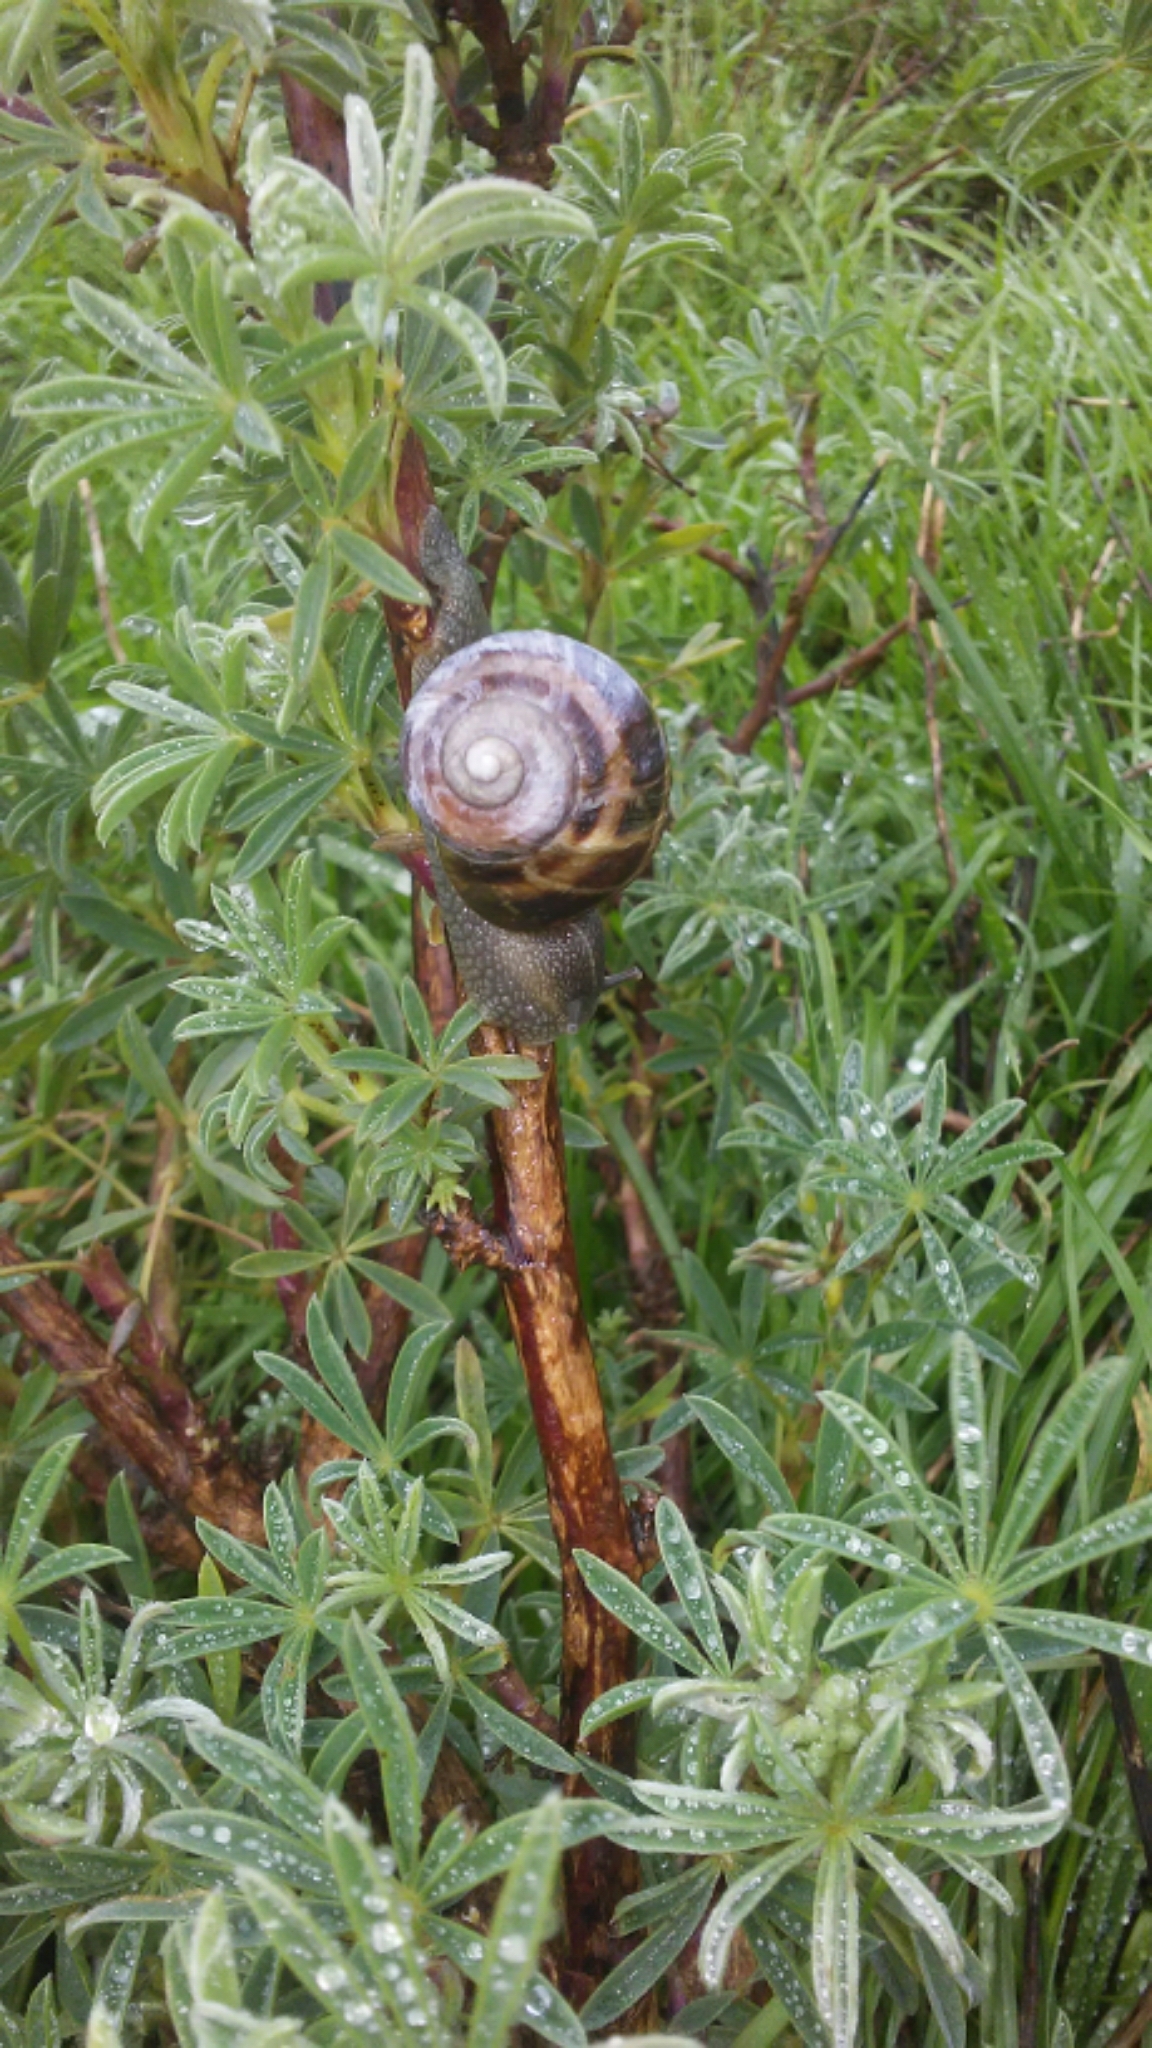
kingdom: Animalia
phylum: Mollusca
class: Gastropoda
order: Stylommatophora
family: Helicidae
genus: Cornu
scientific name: Cornu aspersum
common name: Brown garden snail
